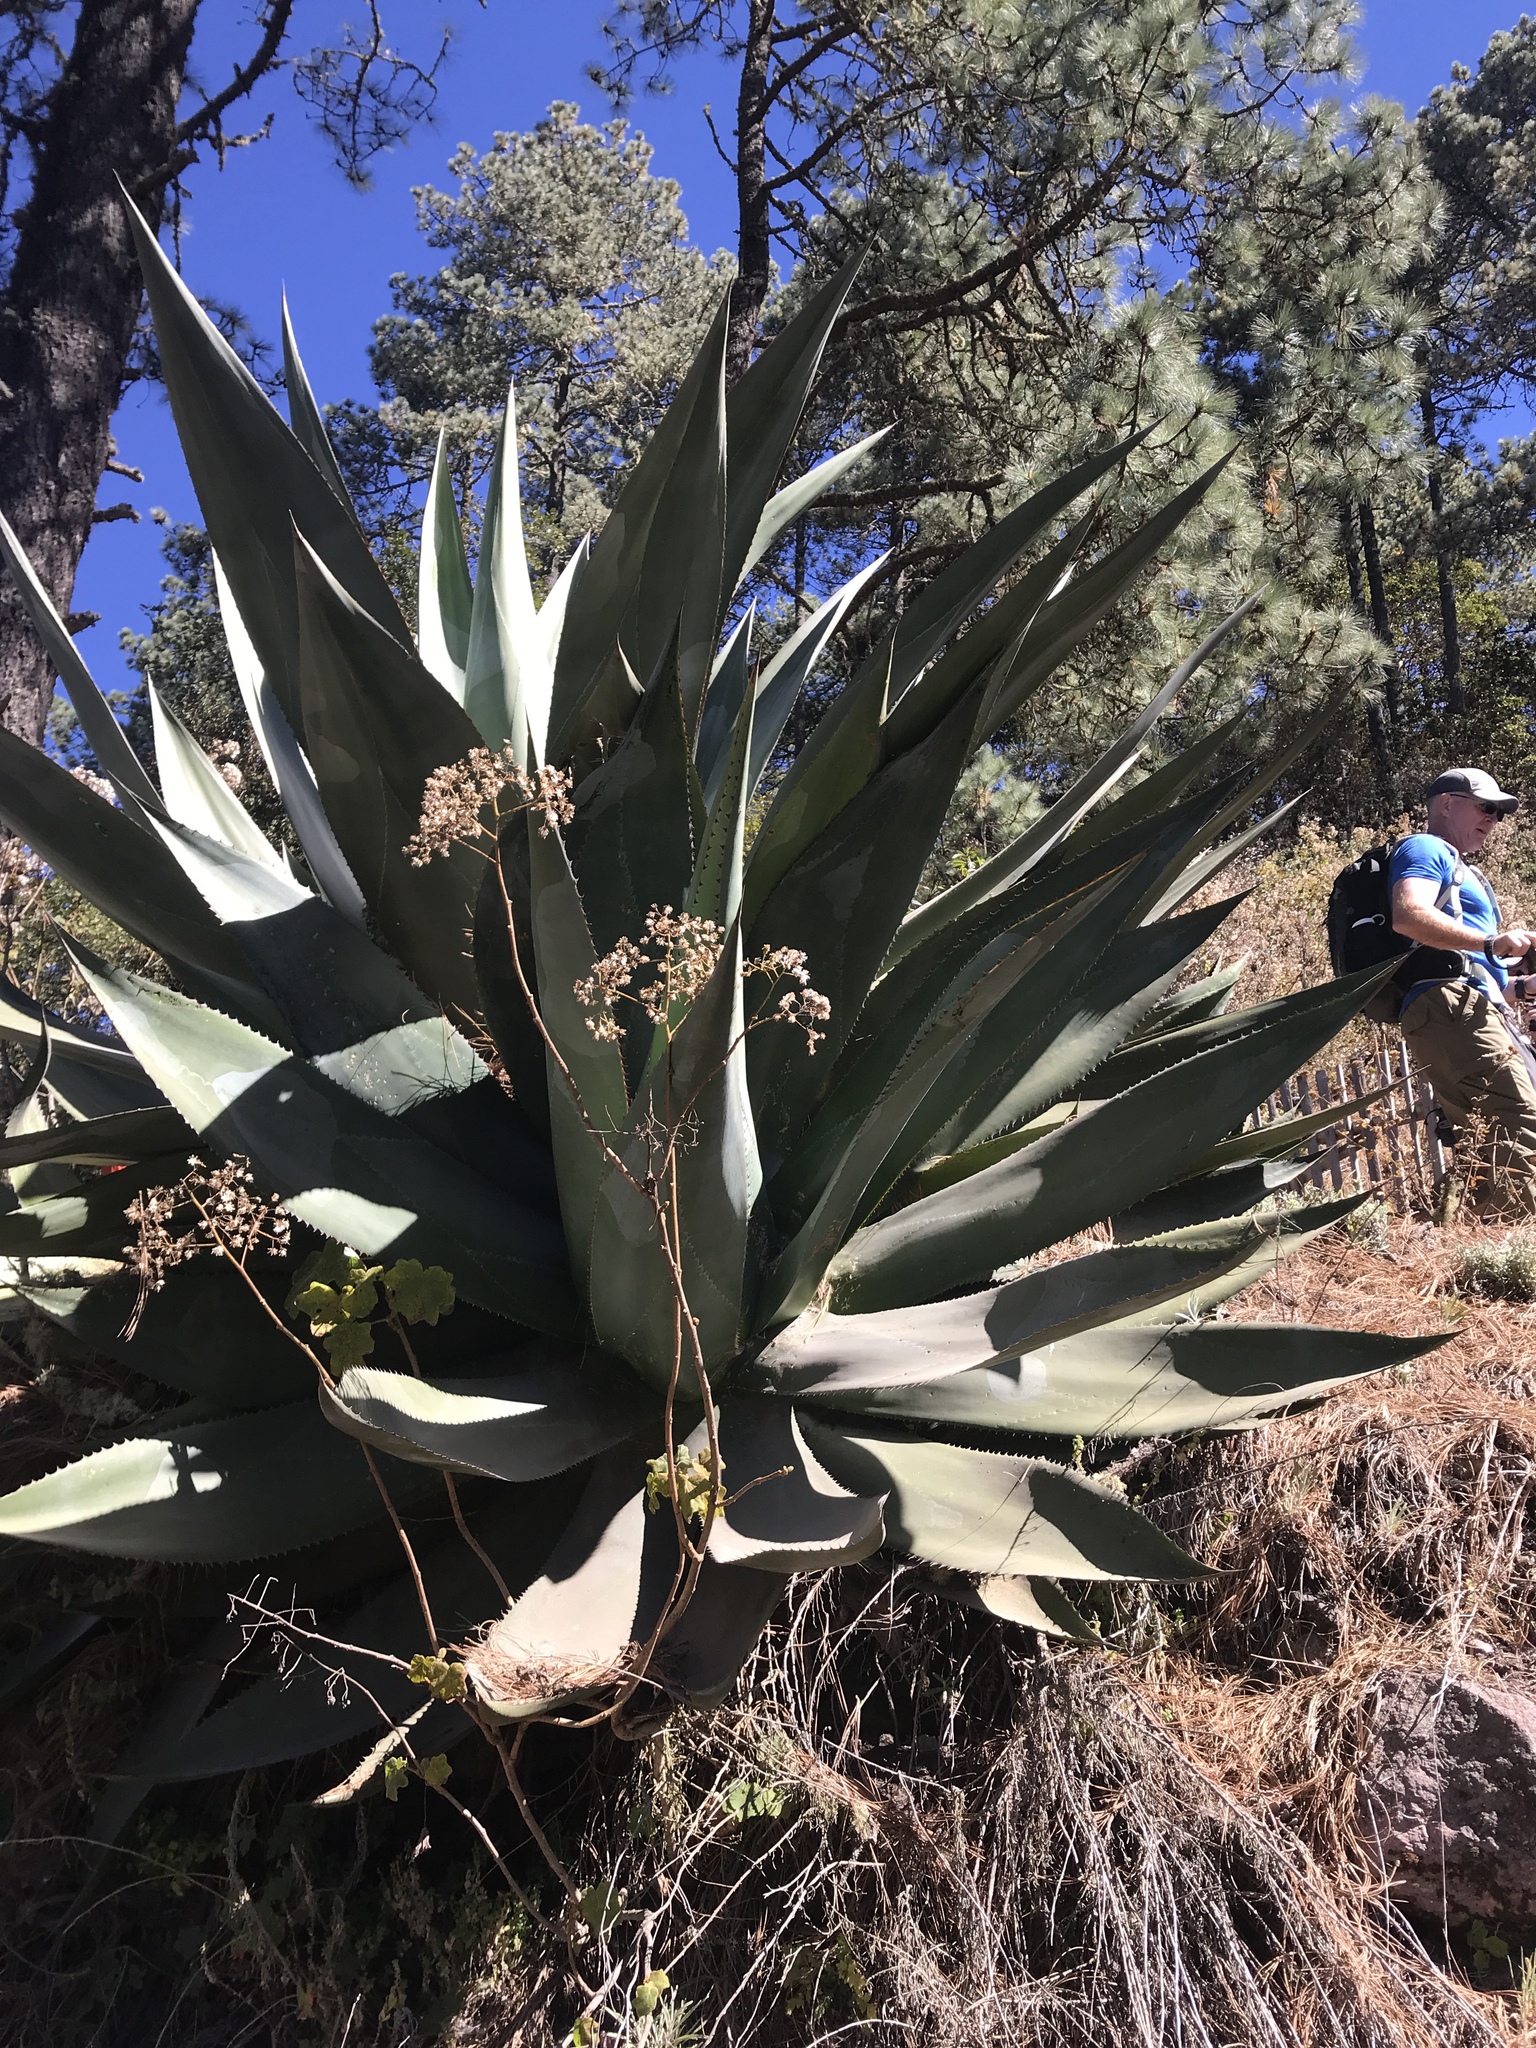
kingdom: Plantae
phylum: Tracheophyta
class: Liliopsida
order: Asparagales
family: Asparagaceae
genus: Agave
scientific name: Agave atrovirens
